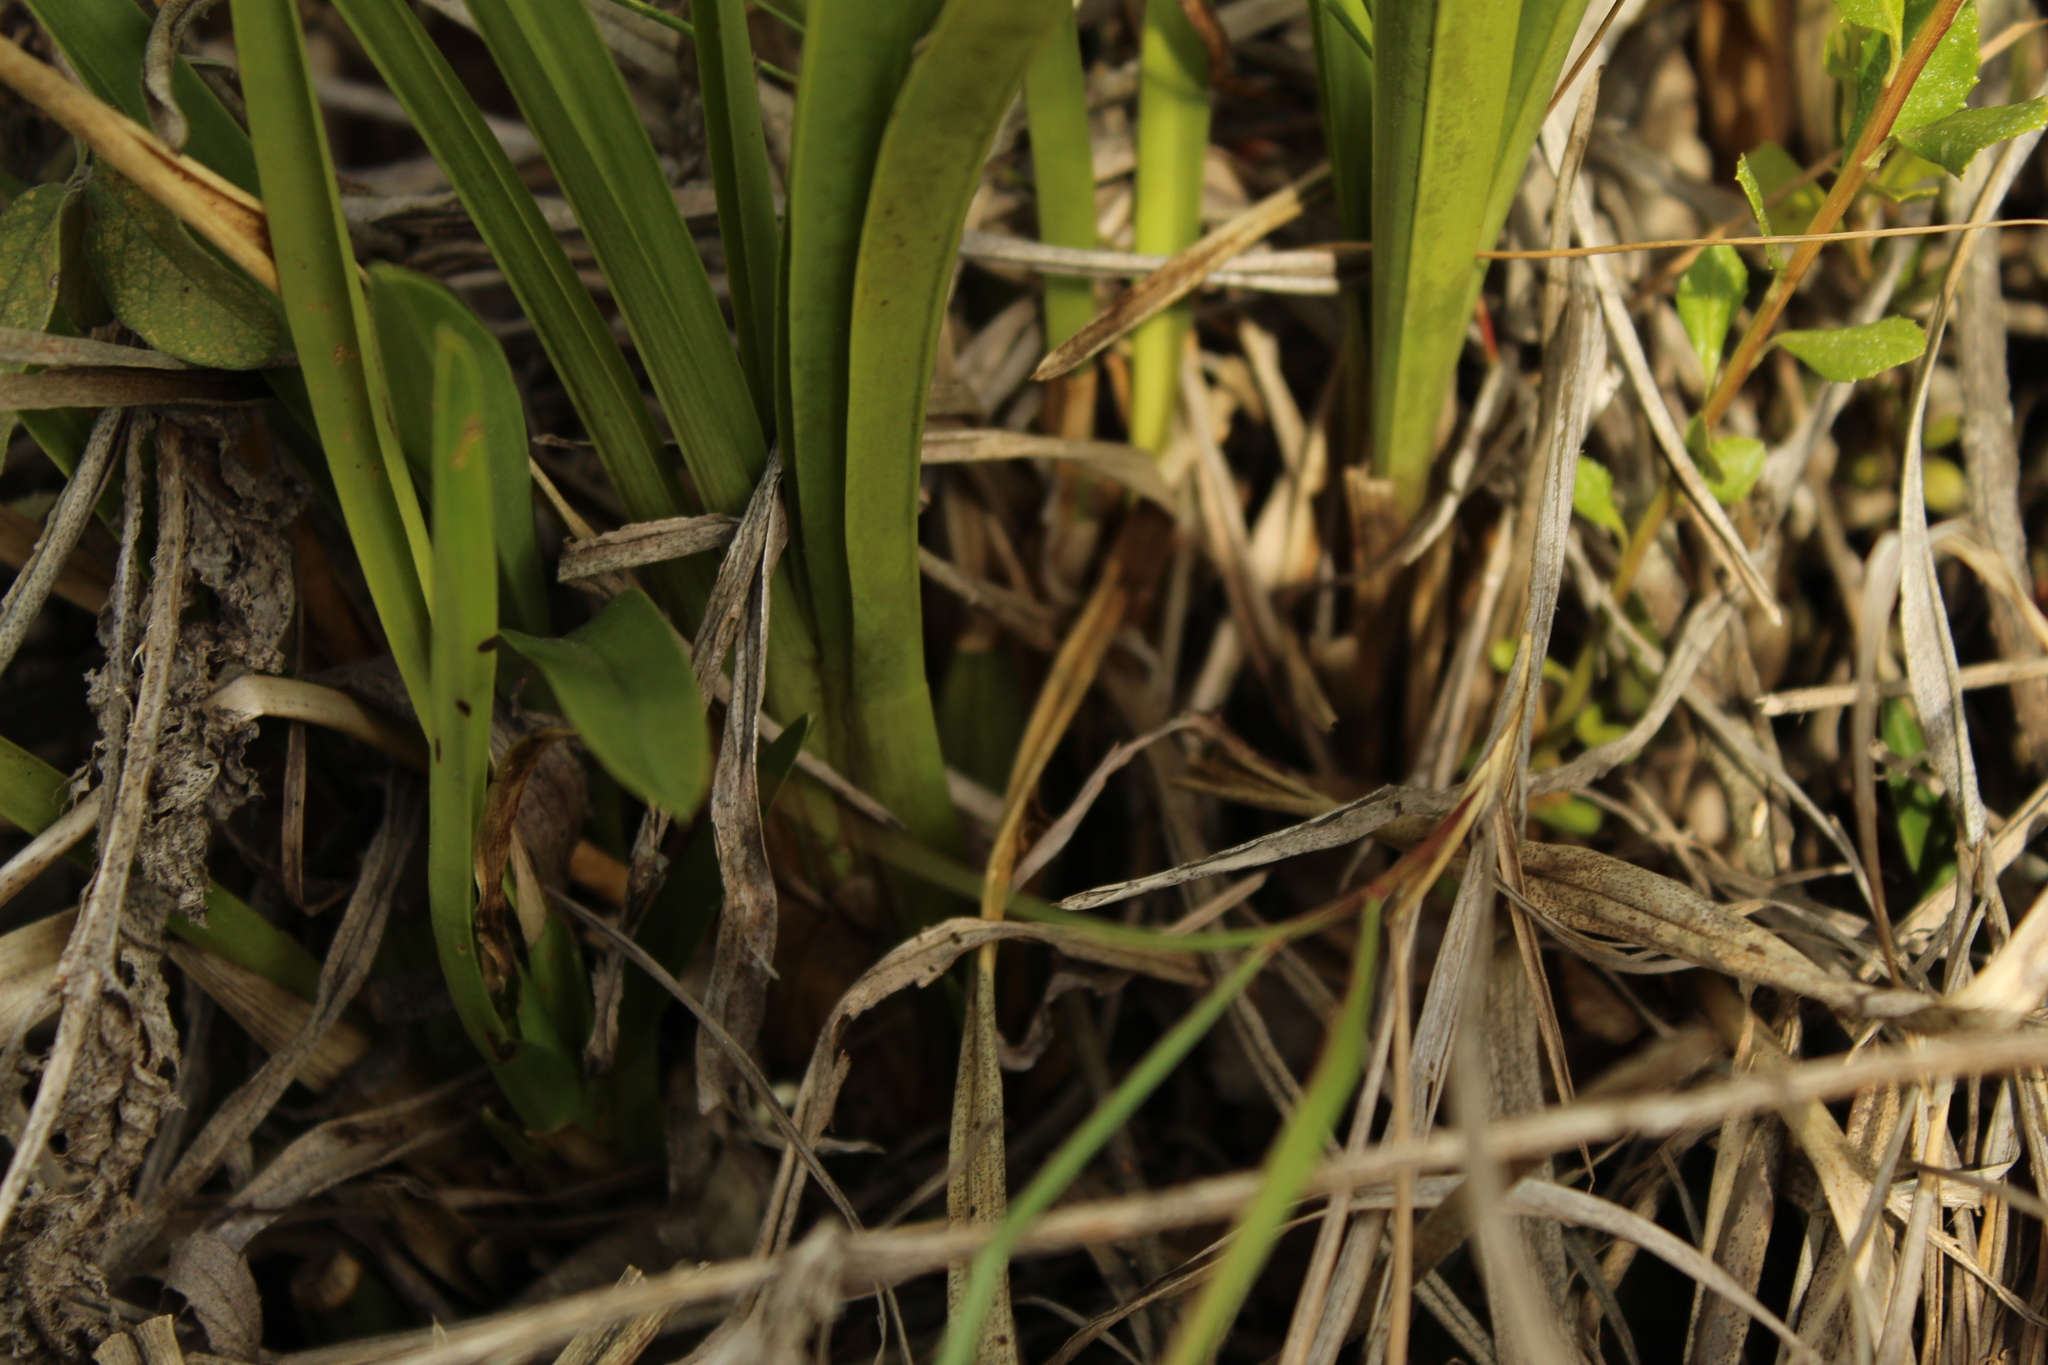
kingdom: Plantae
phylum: Tracheophyta
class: Liliopsida
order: Asparagales
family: Orchidaceae
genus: Cyrtochilum
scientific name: Cyrtochilum densiflorum
